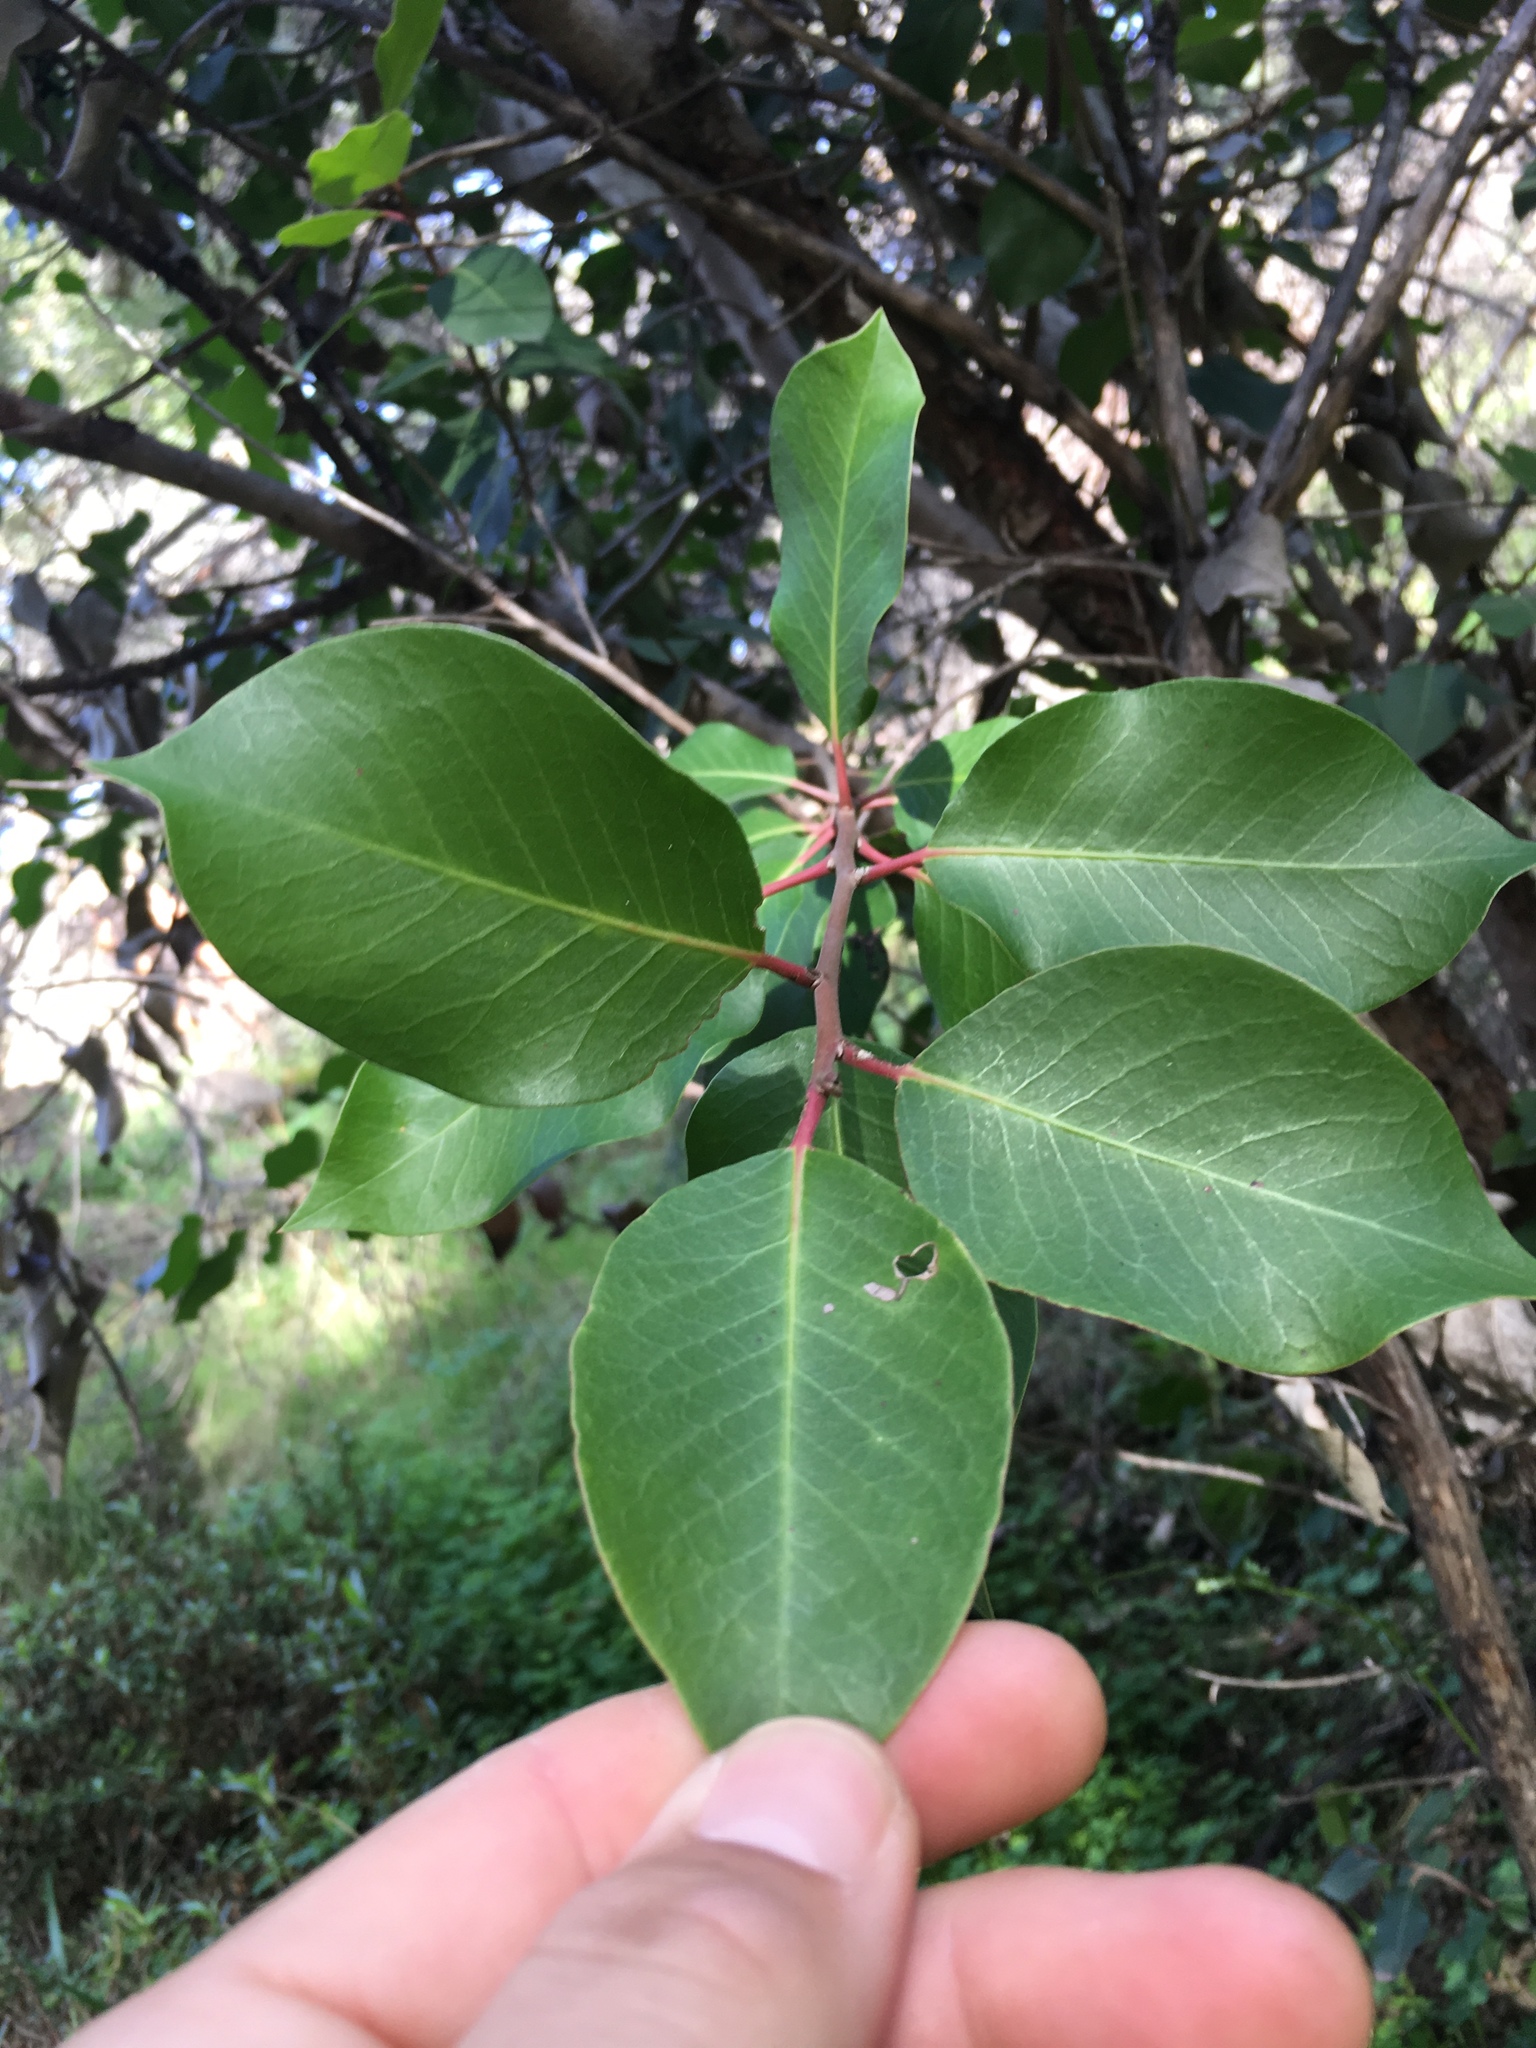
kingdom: Plantae
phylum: Tracheophyta
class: Magnoliopsida
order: Sapindales
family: Anacardiaceae
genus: Rhus
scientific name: Rhus ovata
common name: Sugar sumac
